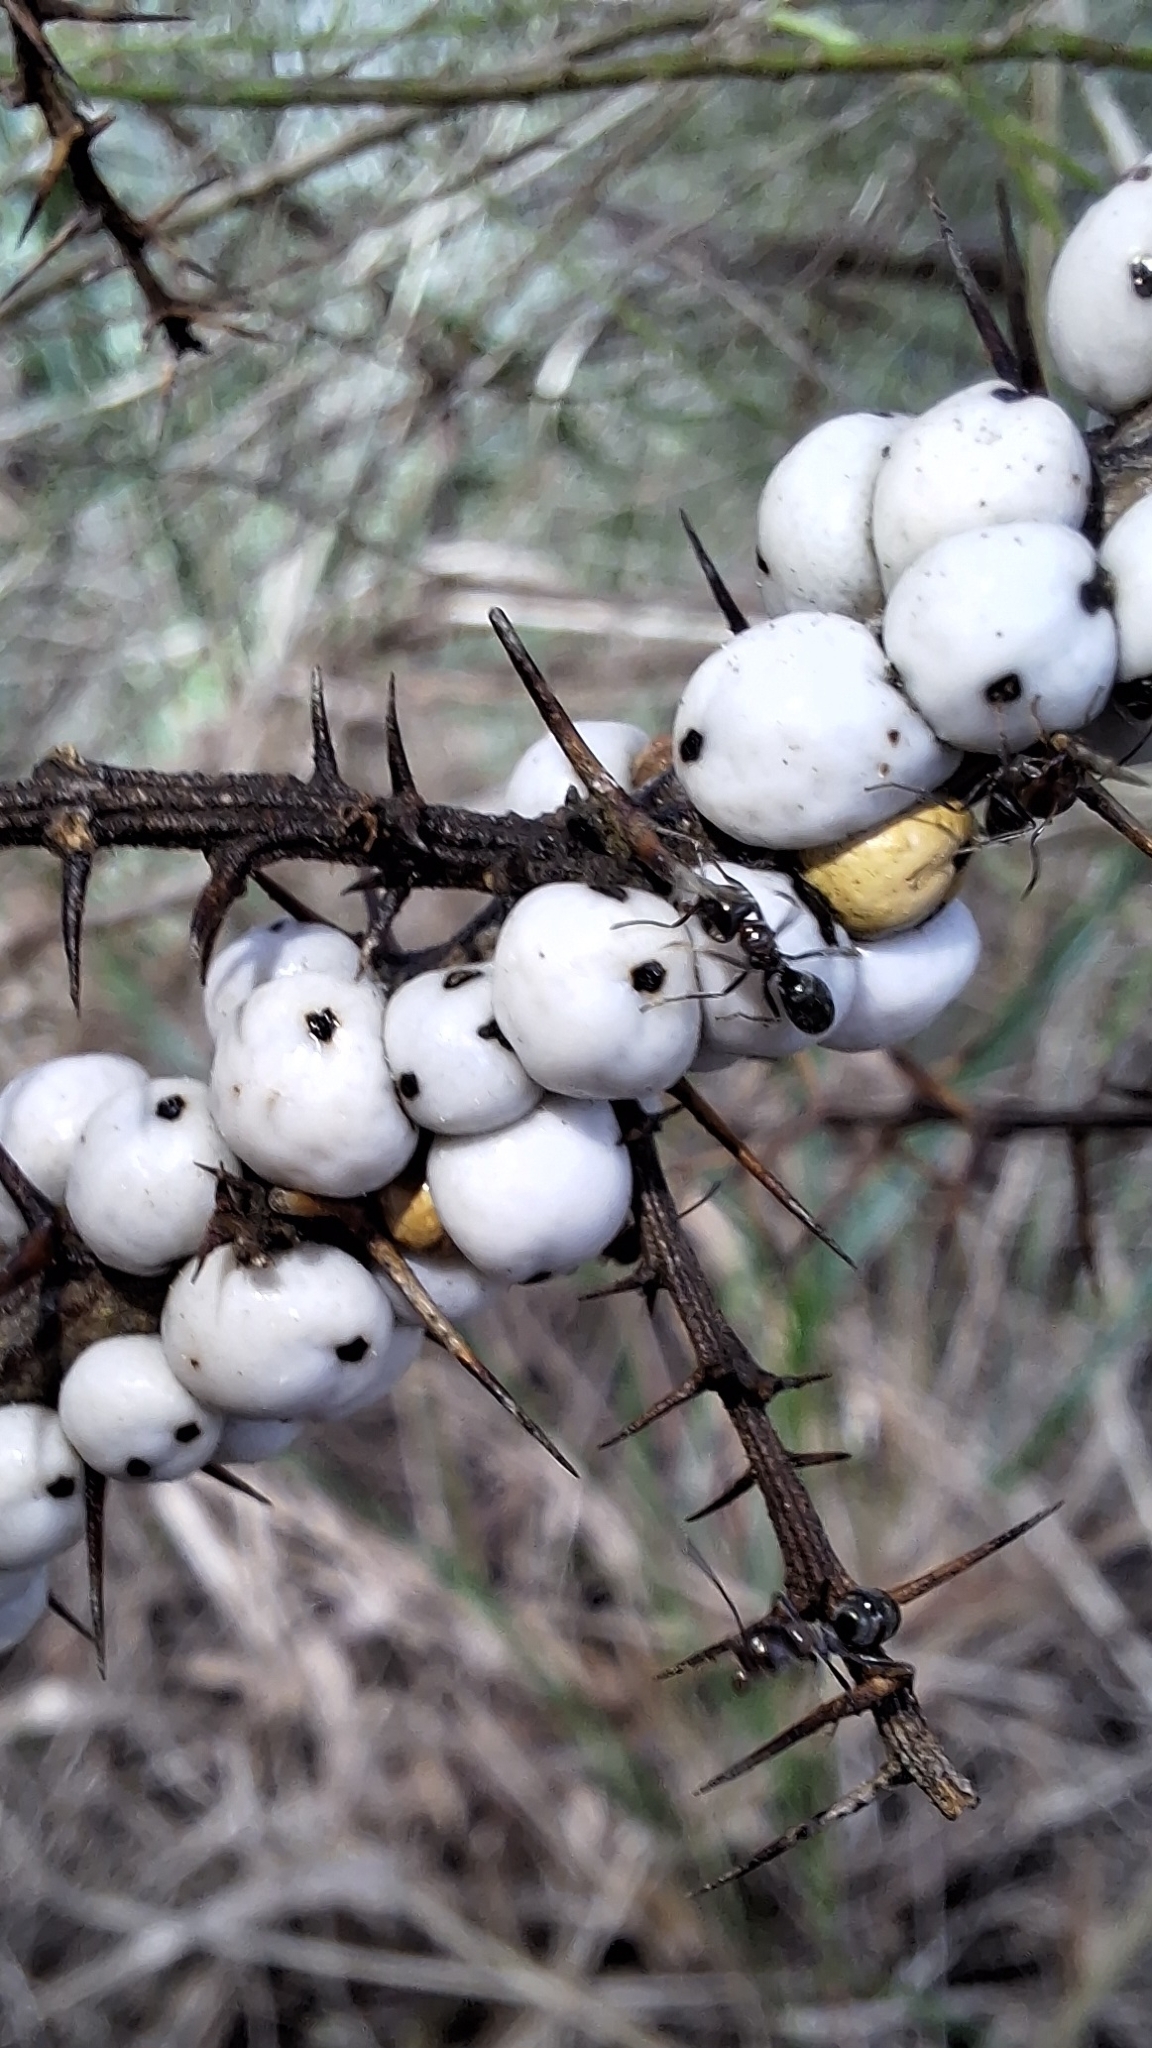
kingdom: Animalia
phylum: Arthropoda
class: Insecta
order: Hemiptera
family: Coccidae
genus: Cryptes
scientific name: Cryptes baccatus
